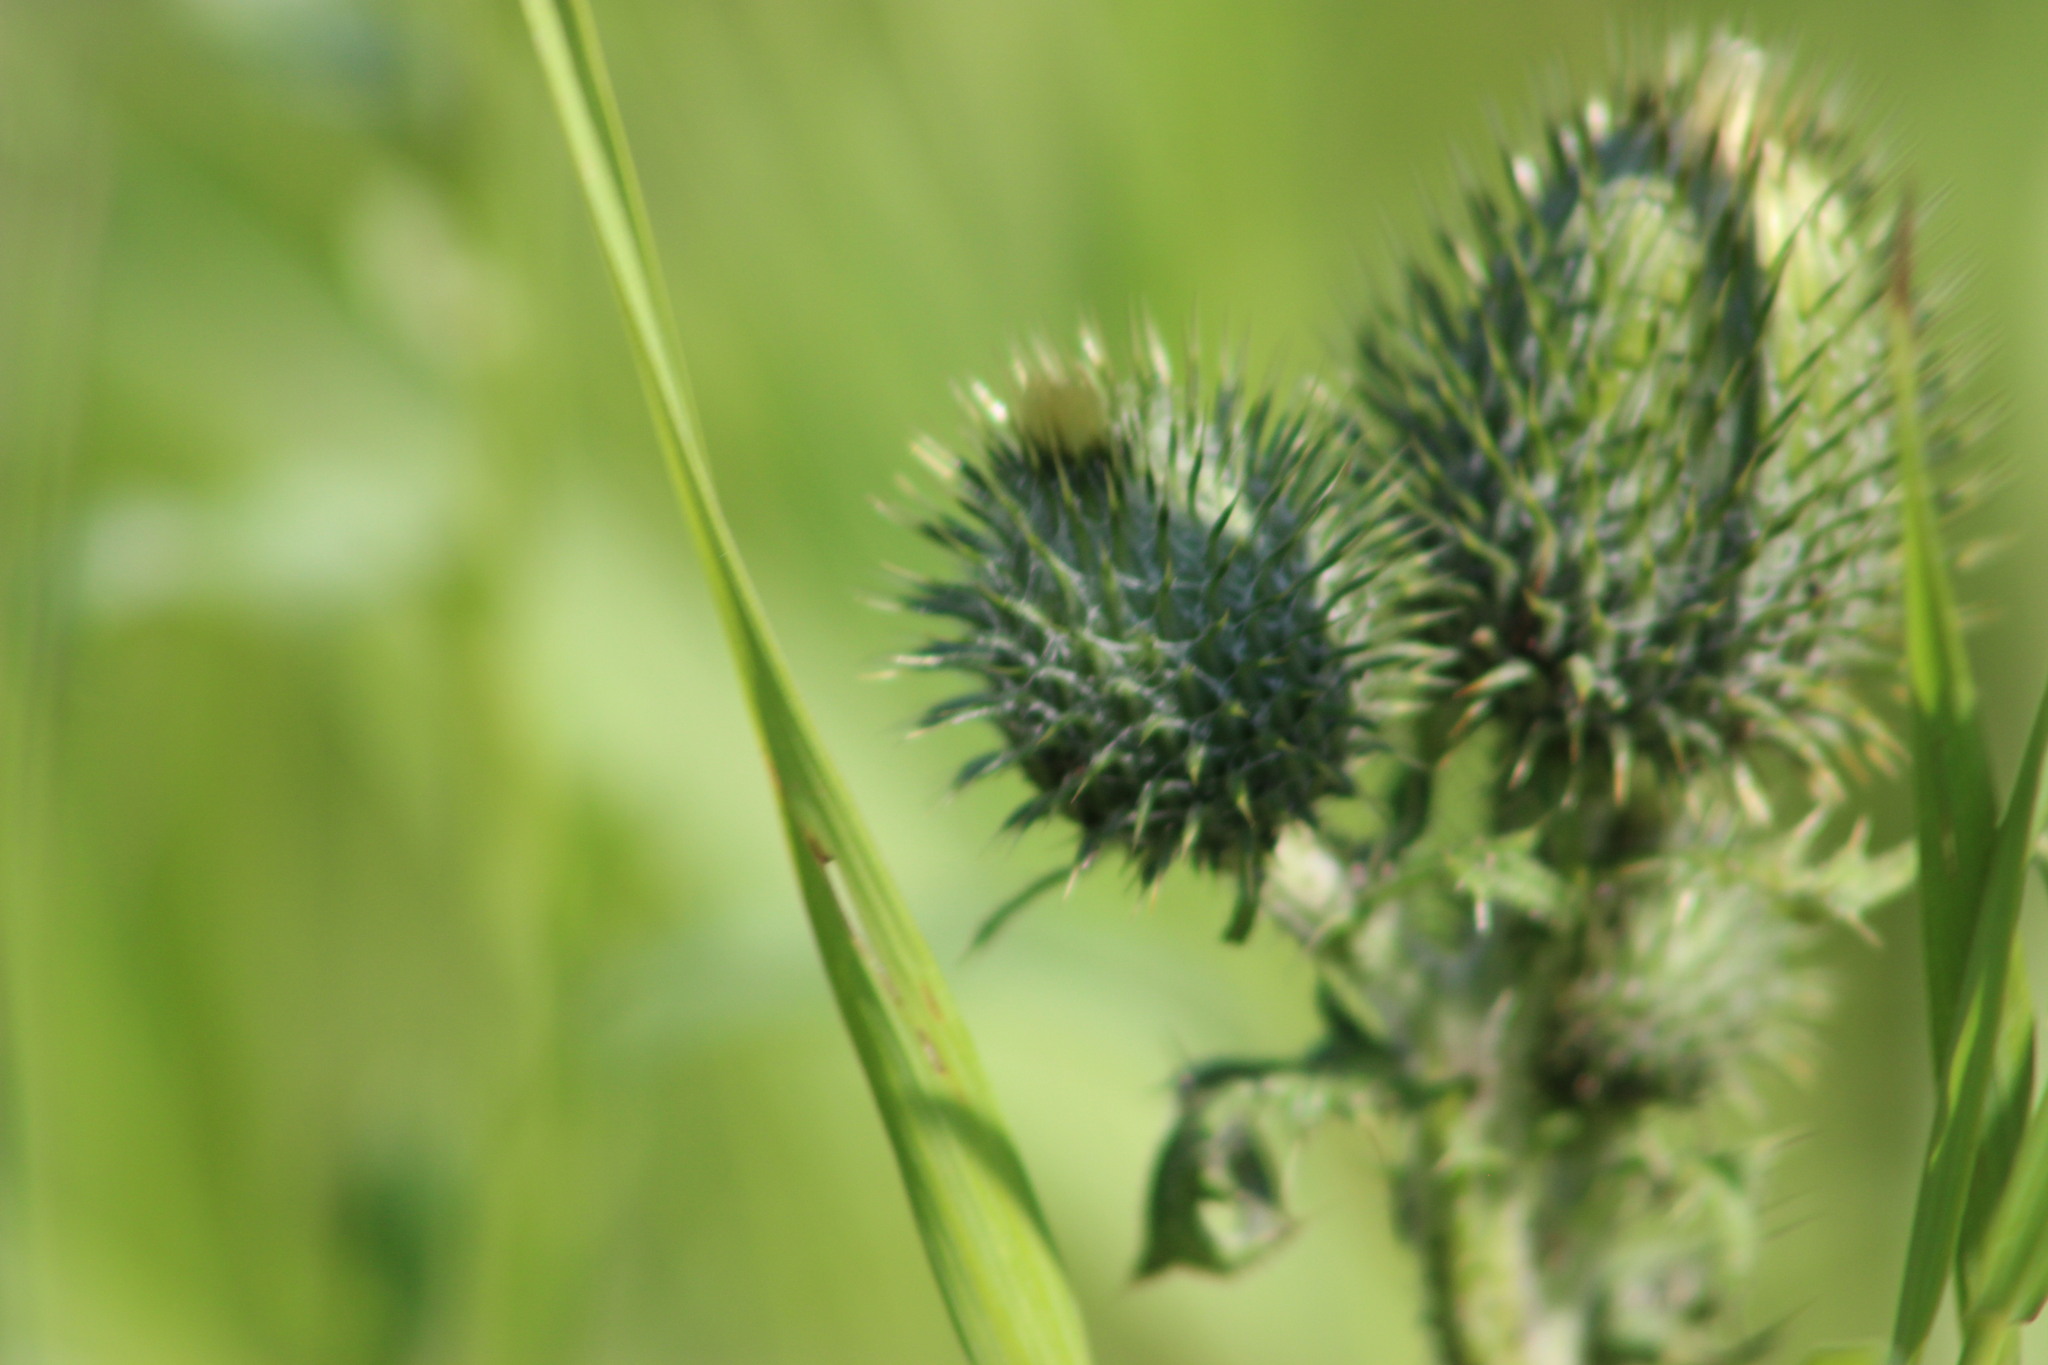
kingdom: Plantae
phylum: Tracheophyta
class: Magnoliopsida
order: Asterales
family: Asteraceae
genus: Cirsium
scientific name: Cirsium vulgare
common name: Bull thistle
